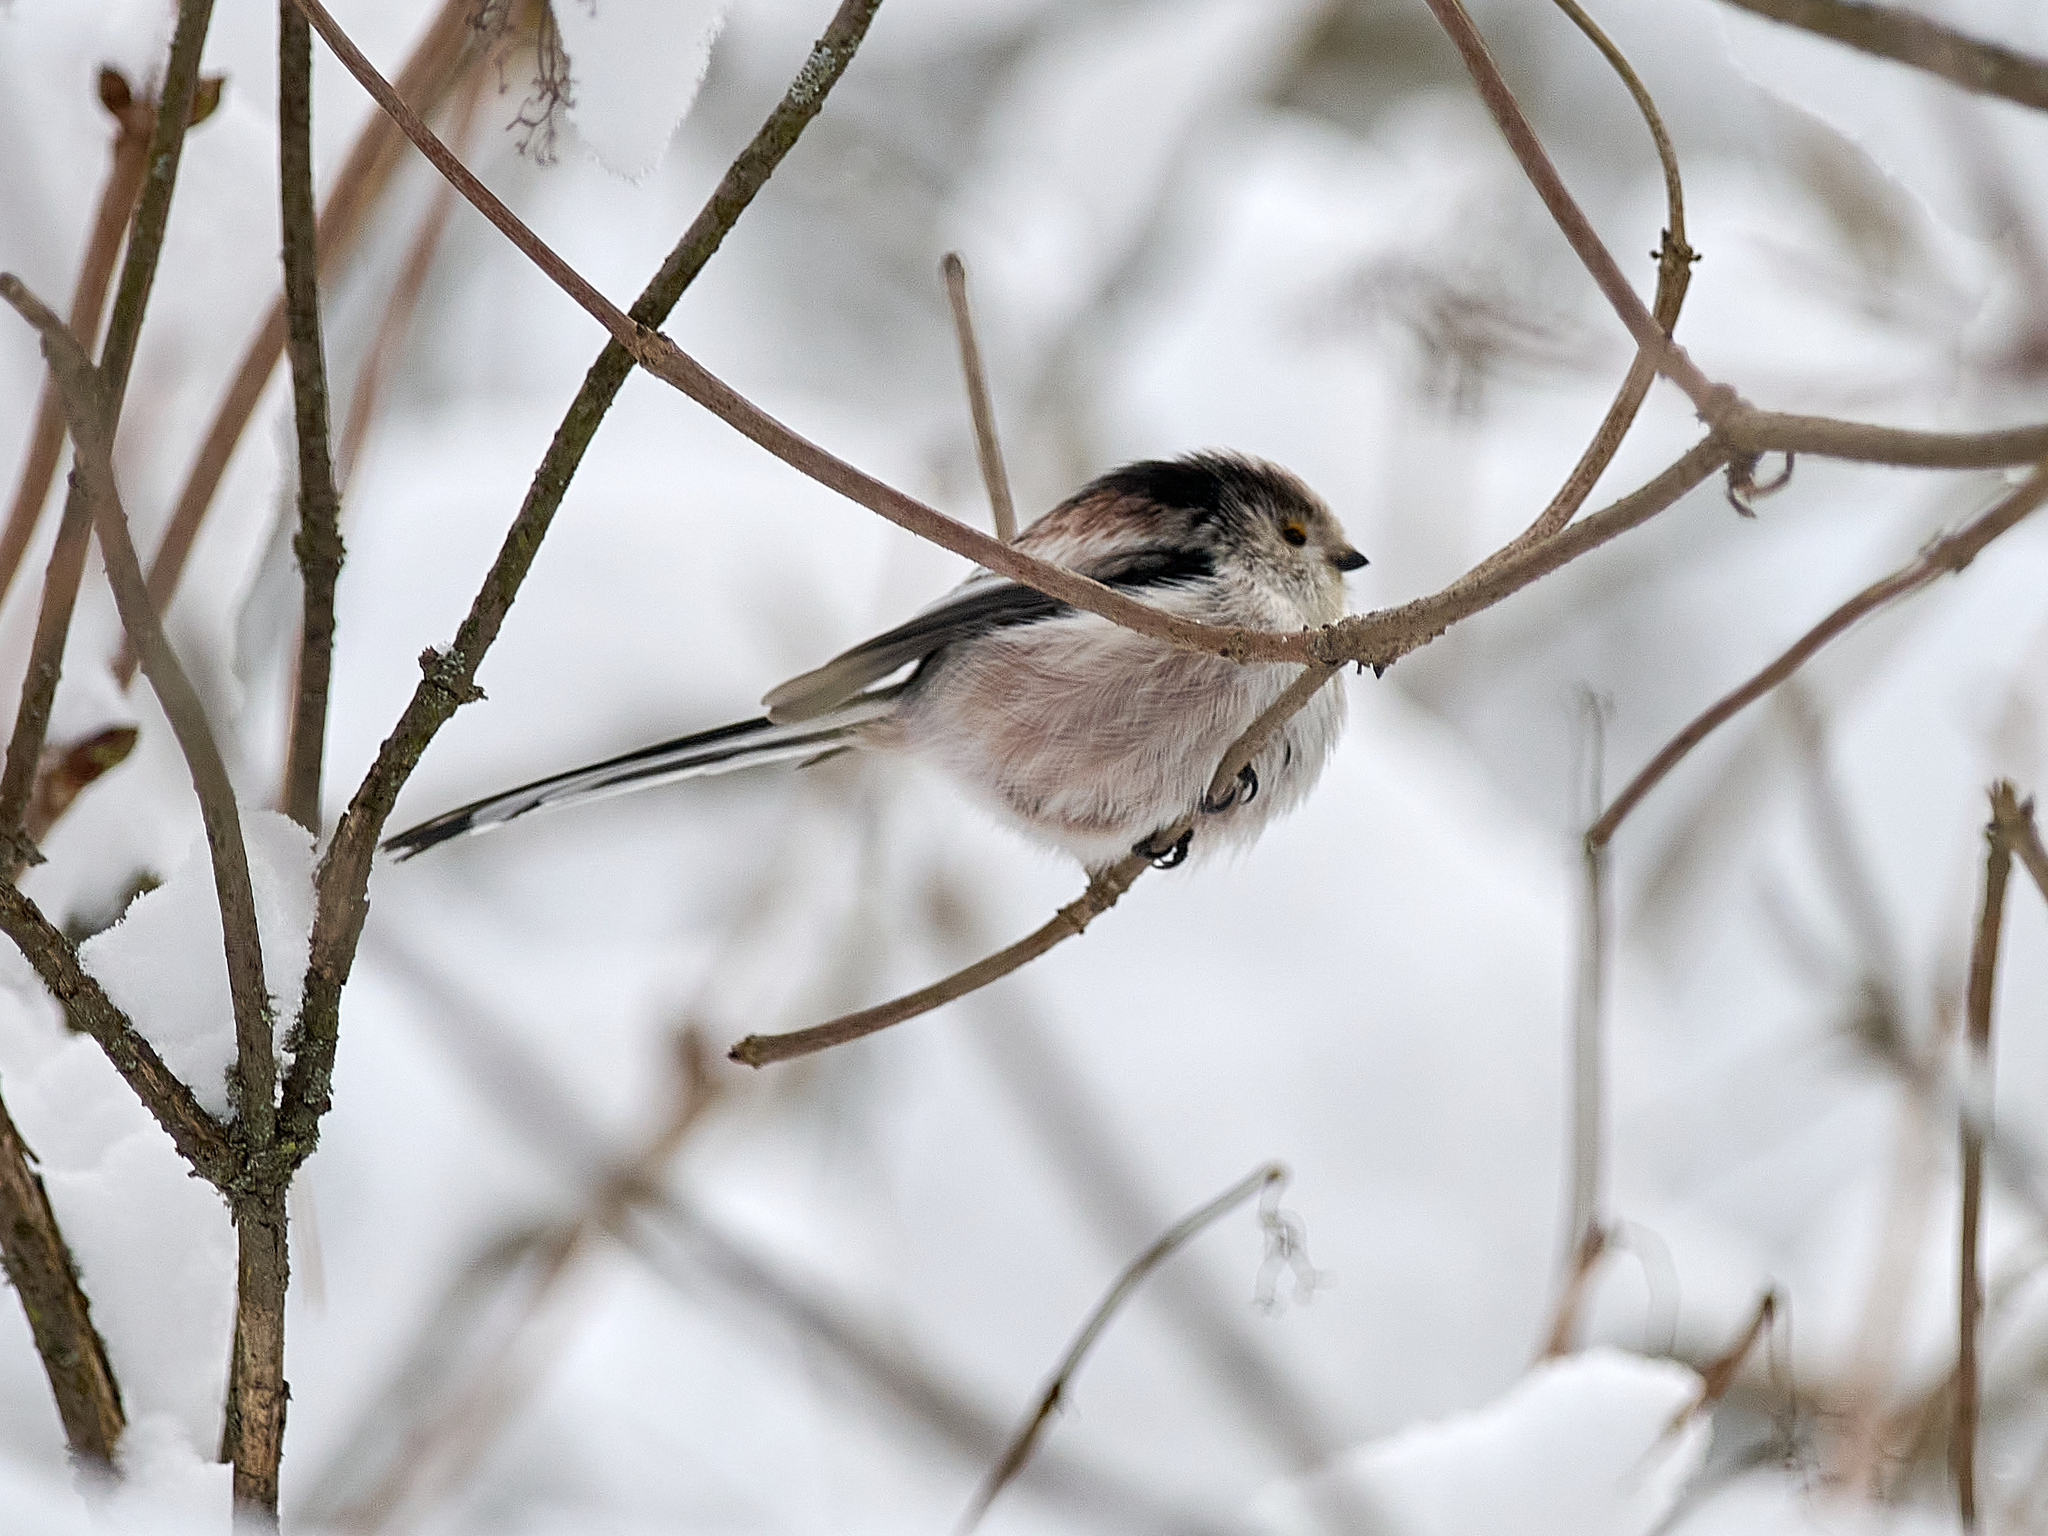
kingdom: Animalia
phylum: Chordata
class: Aves
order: Passeriformes
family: Aegithalidae
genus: Aegithalos
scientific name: Aegithalos caudatus
